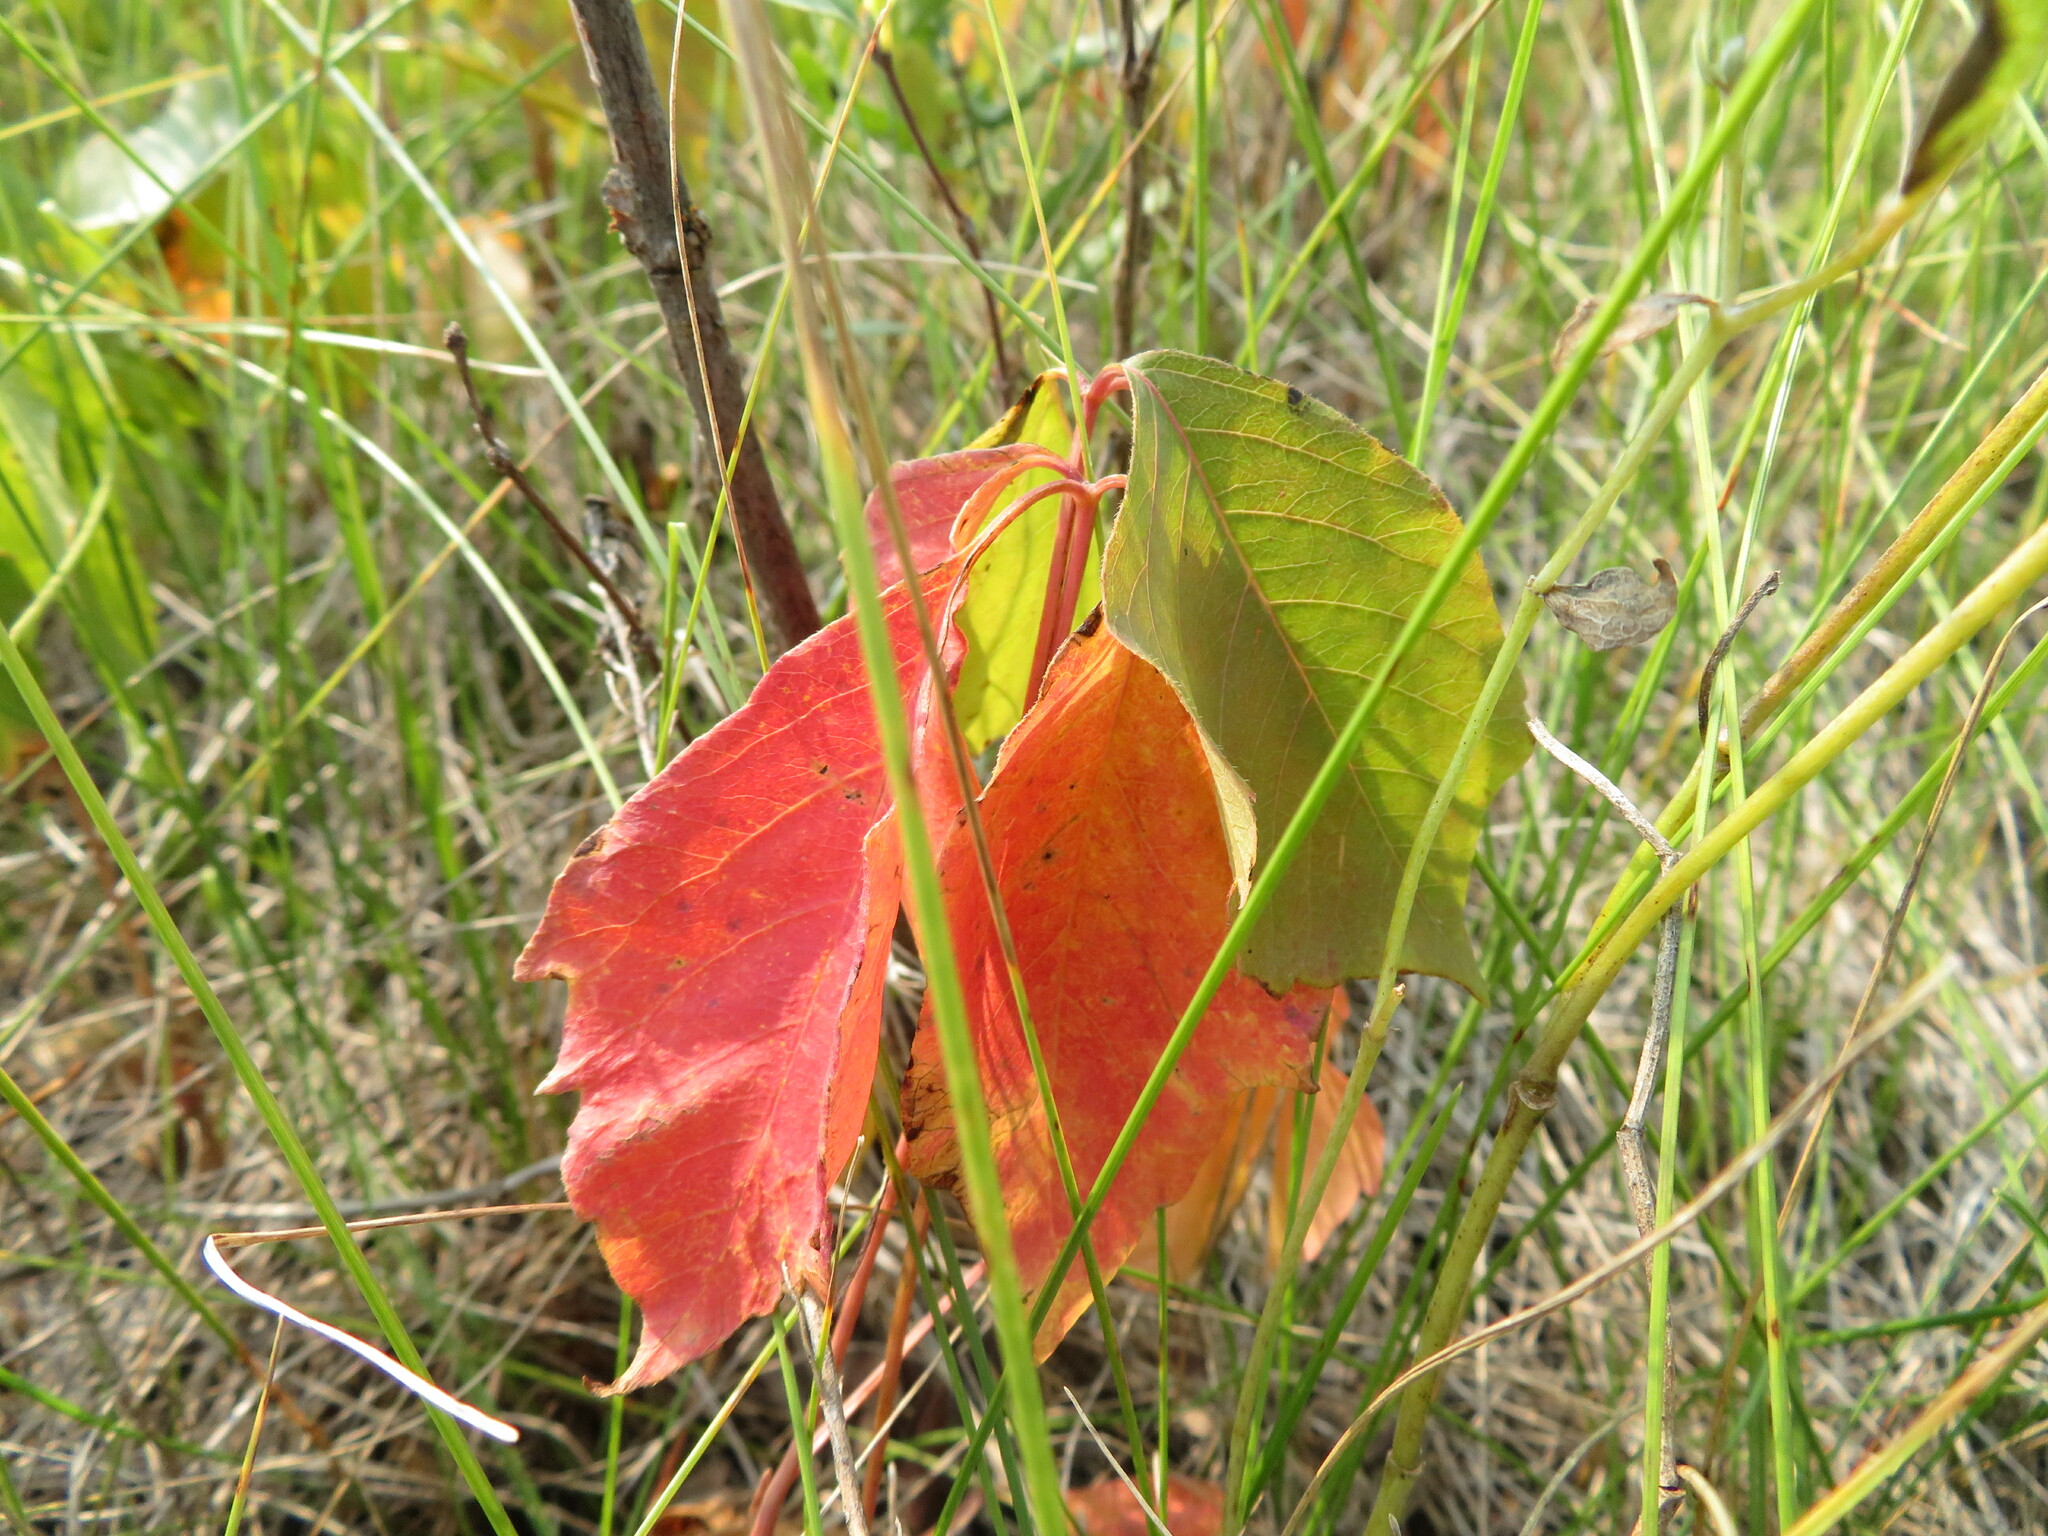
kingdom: Plantae
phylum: Tracheophyta
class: Magnoliopsida
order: Sapindales
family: Anacardiaceae
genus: Toxicodendron
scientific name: Toxicodendron rydbergii
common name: Rydberg's poison-ivy
